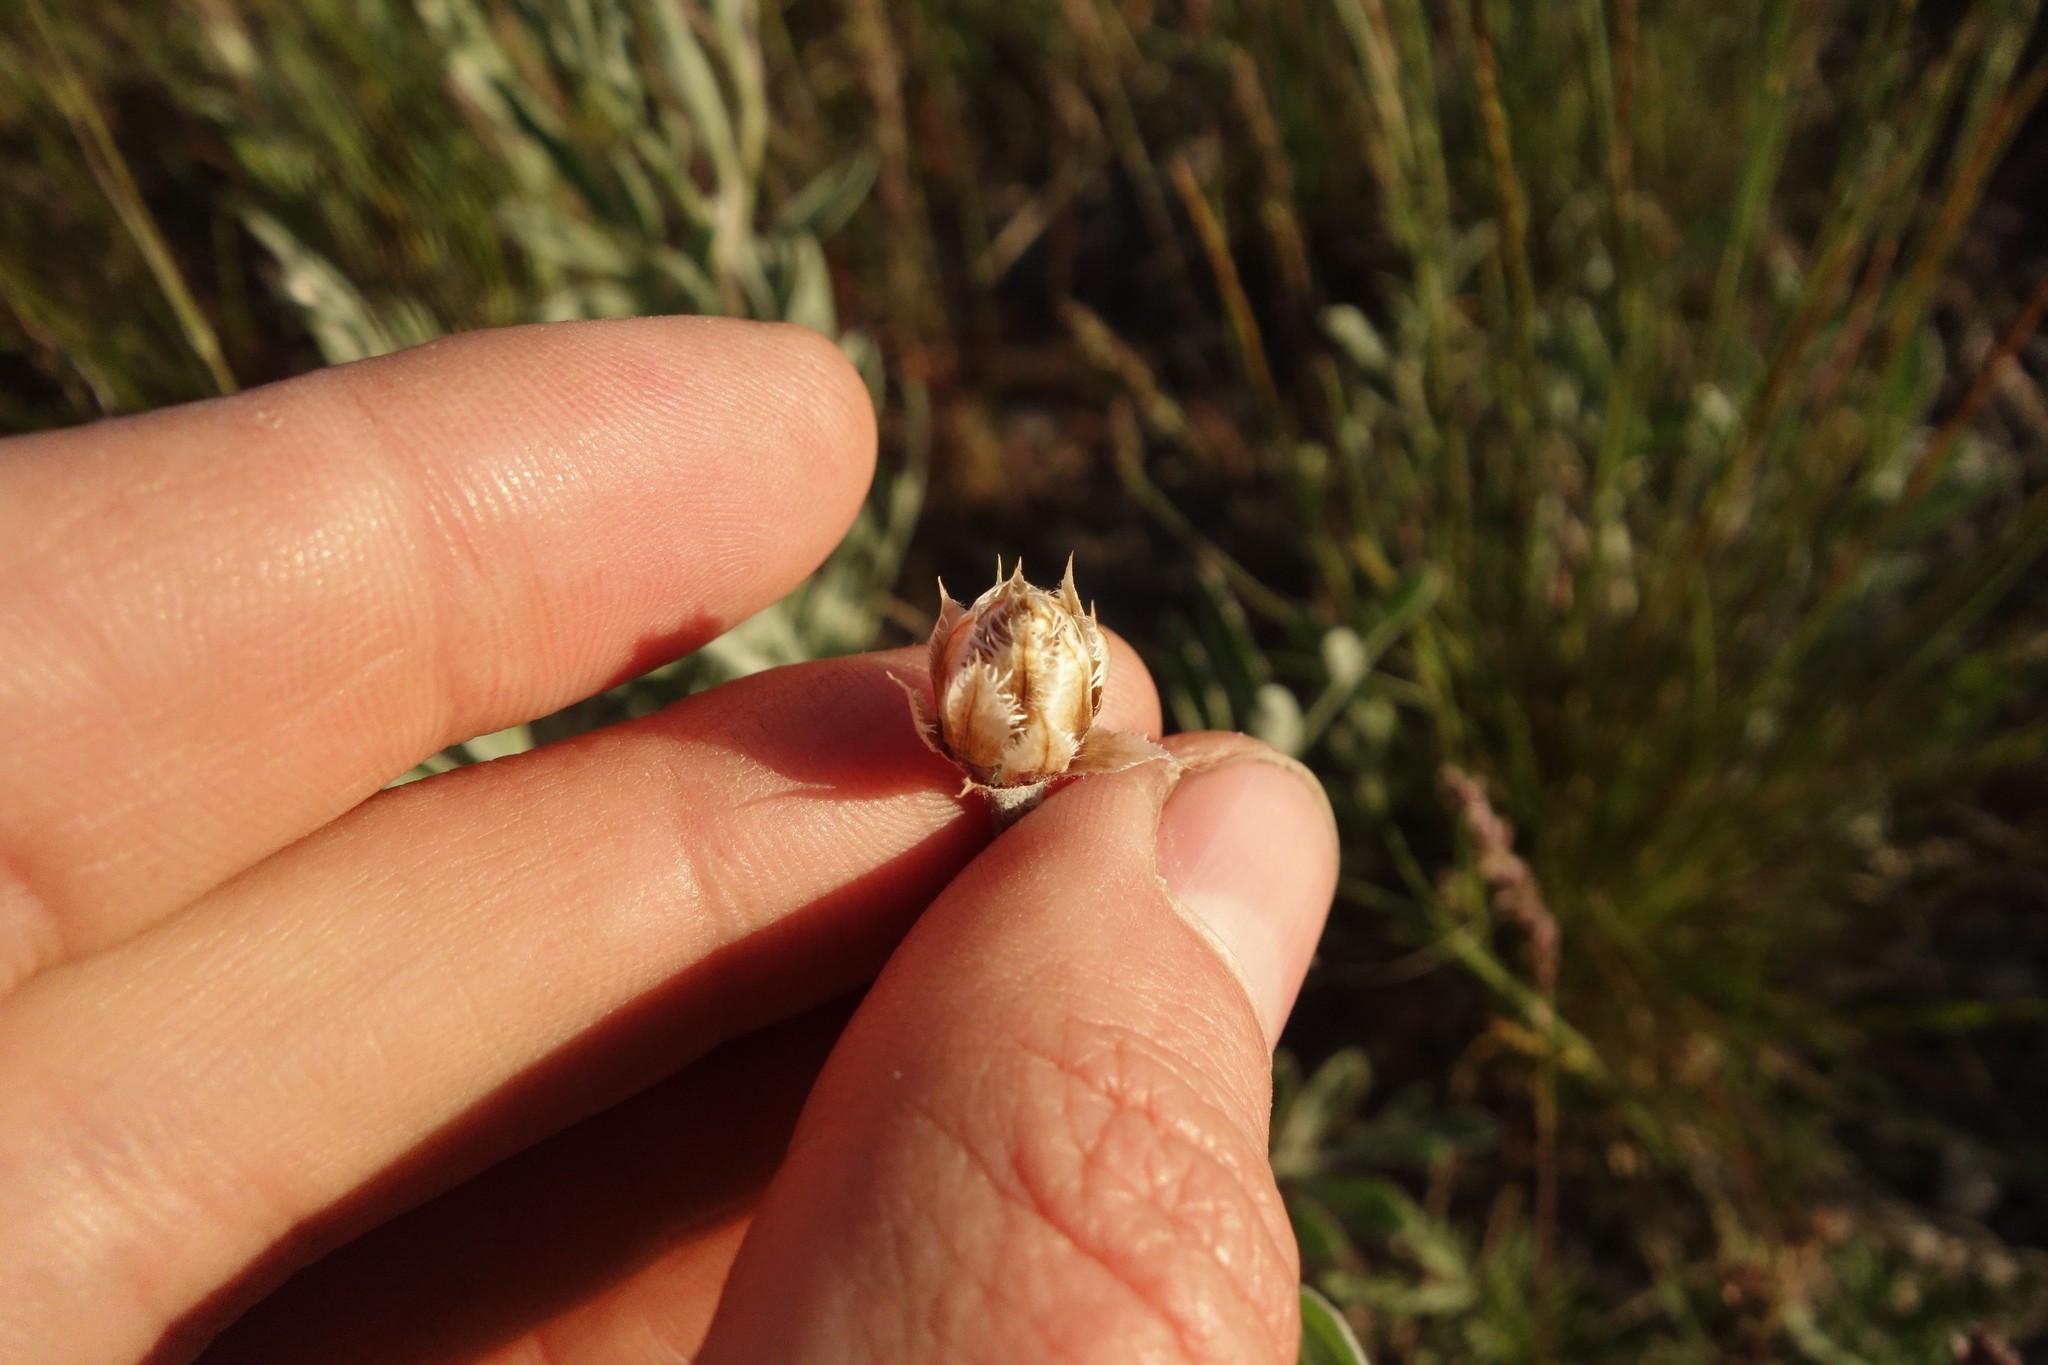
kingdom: Plantae
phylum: Tracheophyta
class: Magnoliopsida
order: Asterales
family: Asteraceae
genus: Psephellus
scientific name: Psephellus marschallianus
